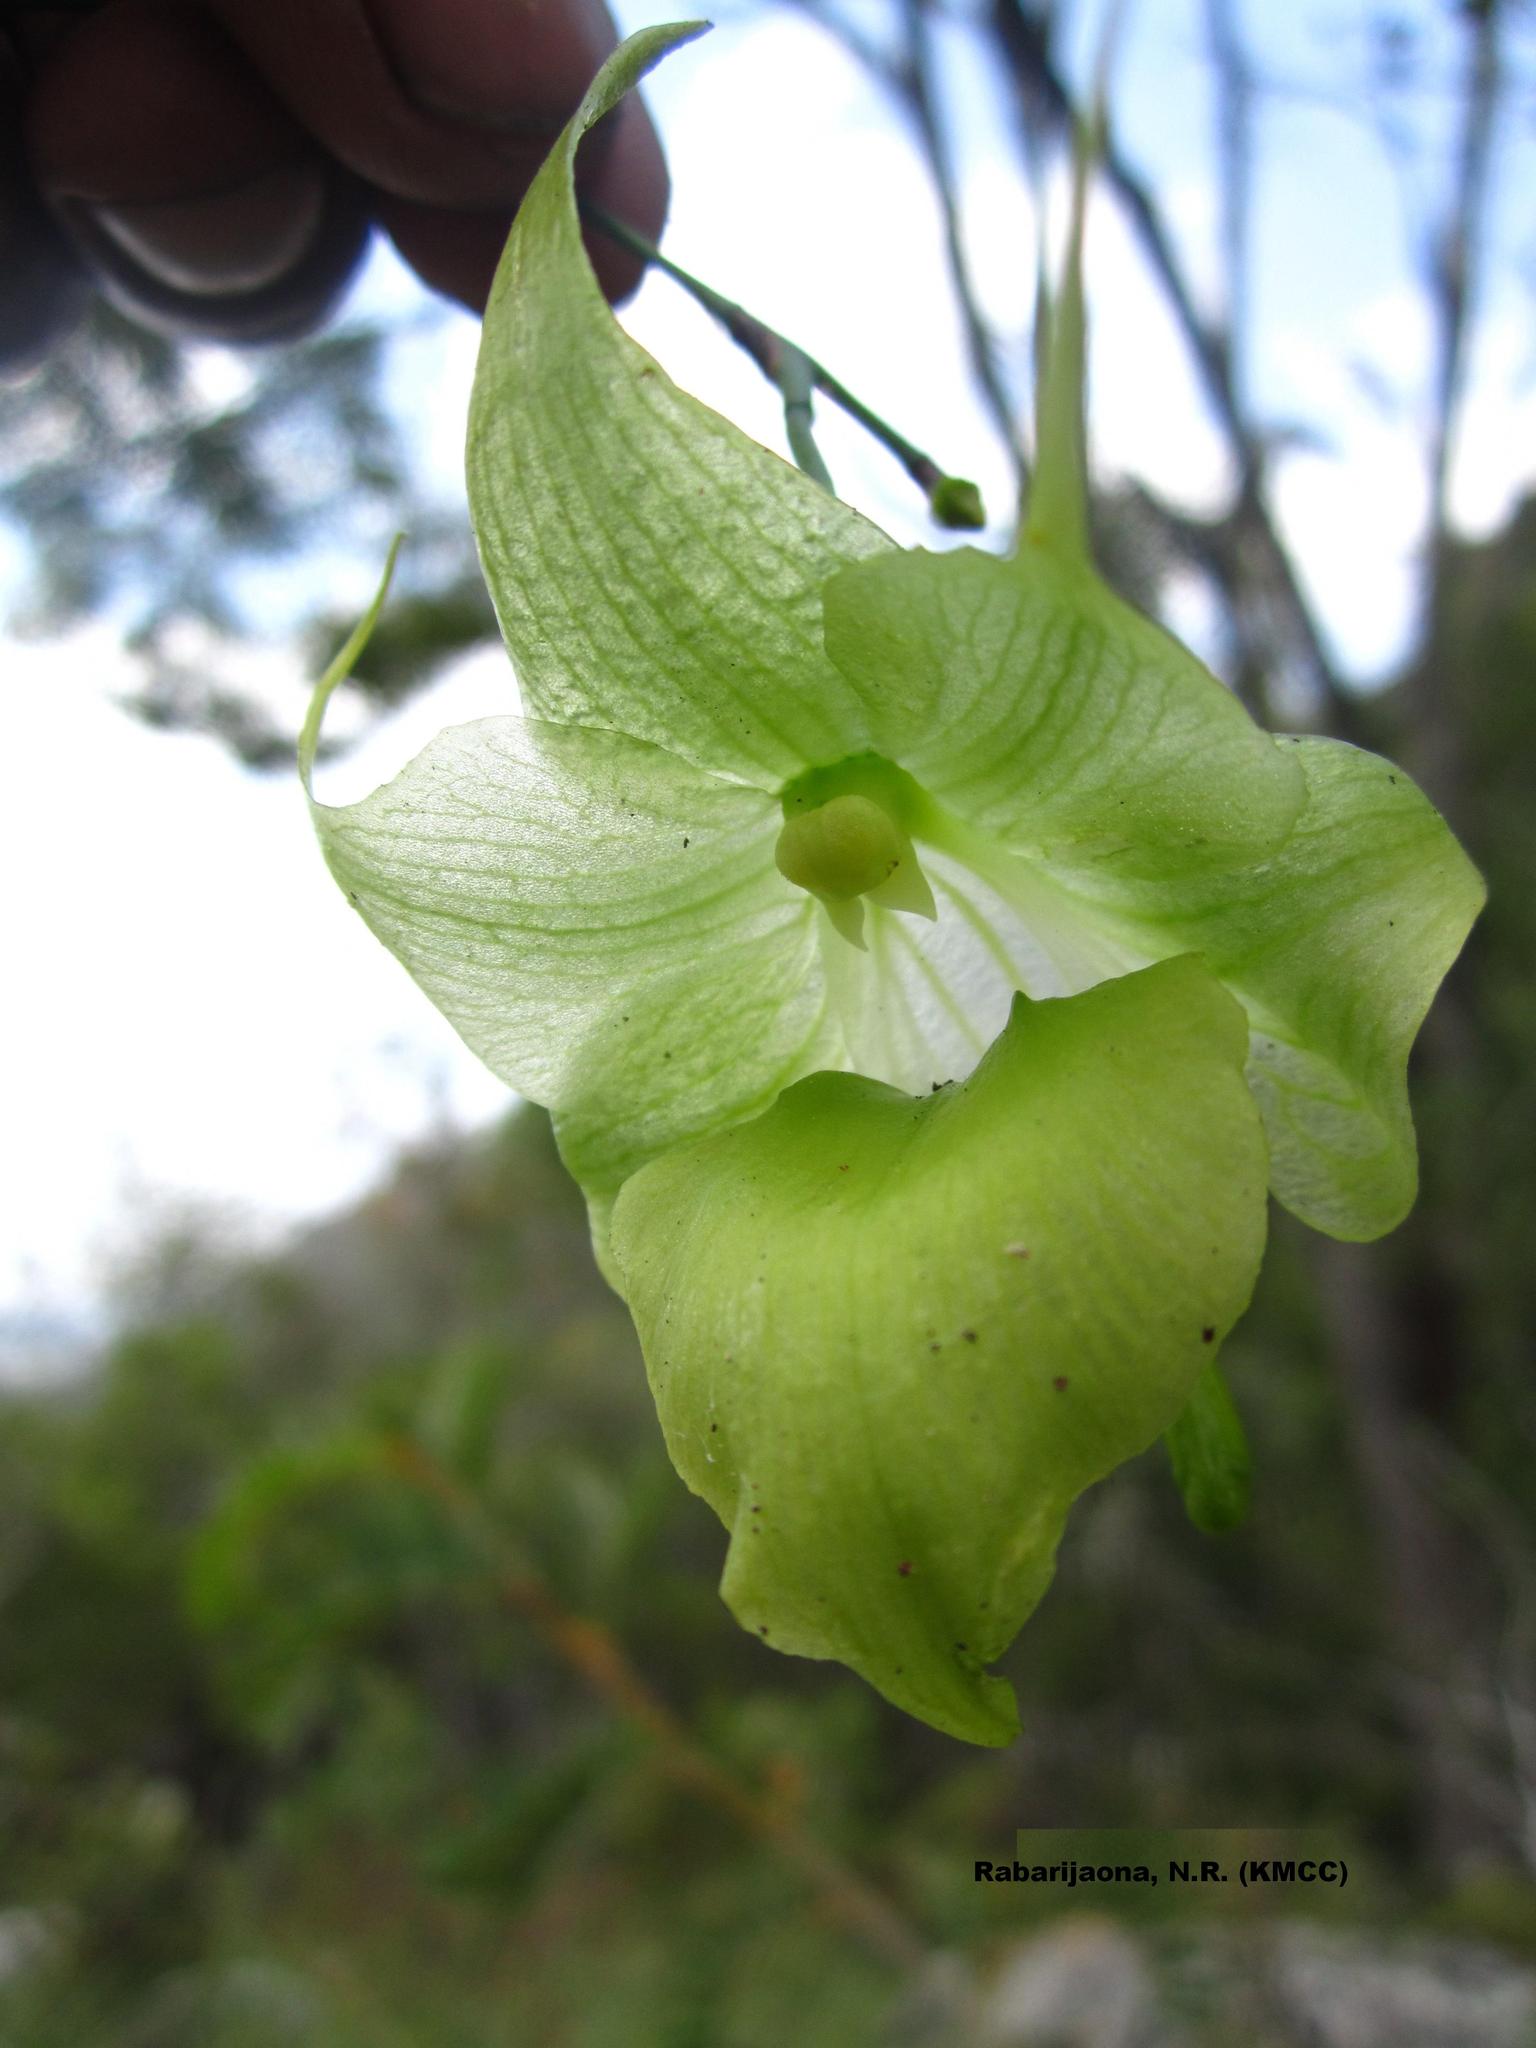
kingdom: Plantae
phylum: Tracheophyta
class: Liliopsida
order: Asparagales
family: Orchidaceae
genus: Aeranthes
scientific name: Aeranthes ramosa
